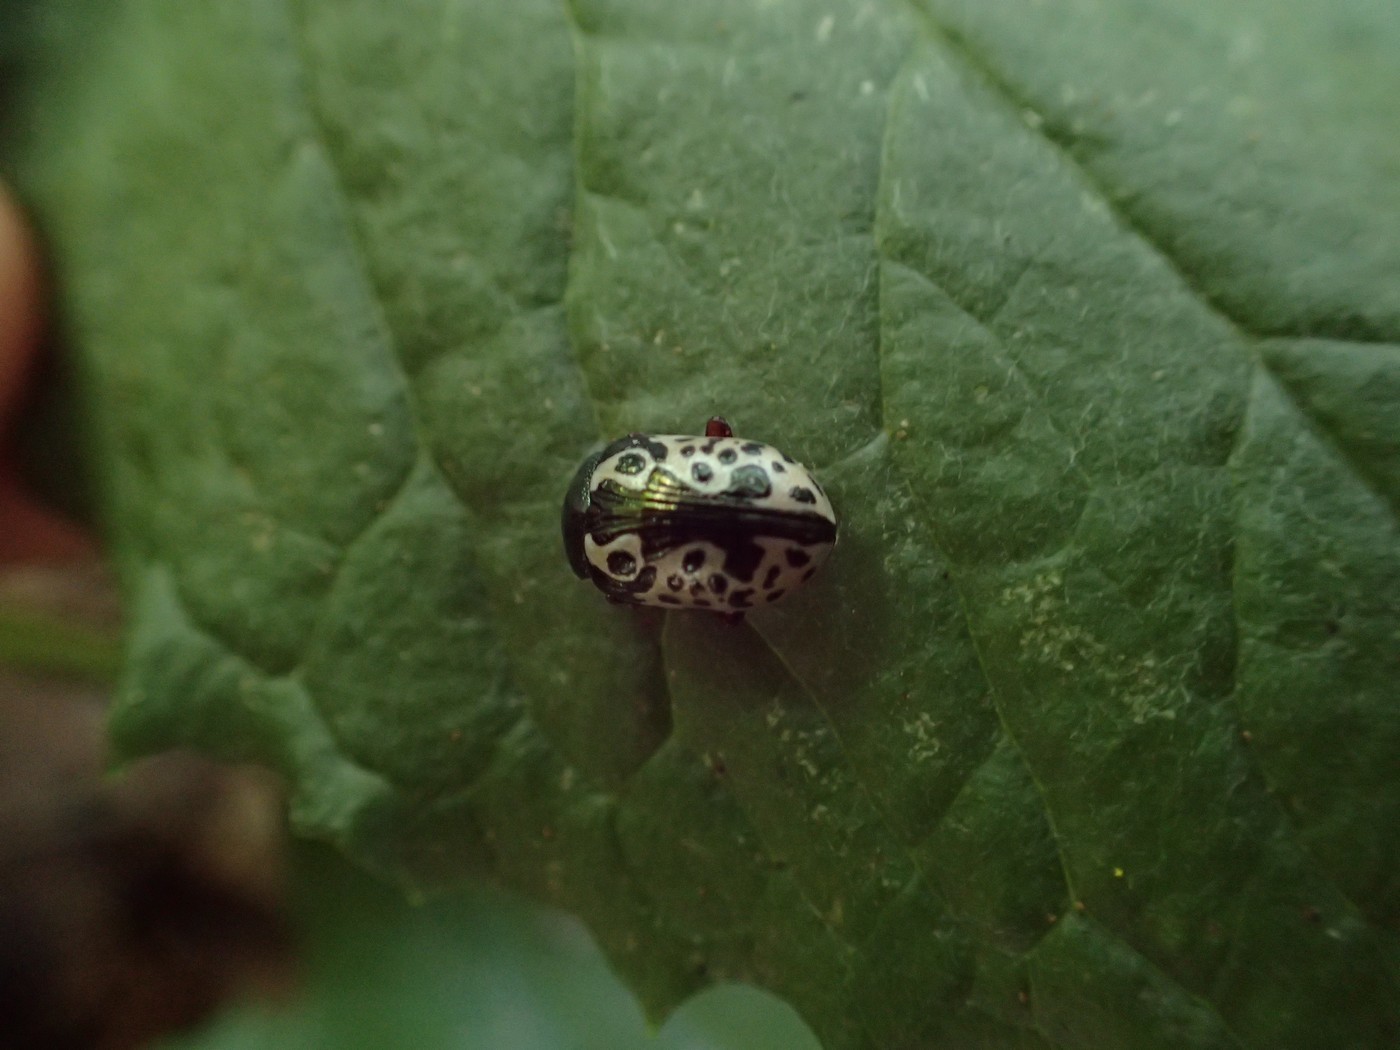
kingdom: Animalia
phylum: Arthropoda
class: Insecta
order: Coleoptera
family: Chrysomelidae
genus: Calligrapha
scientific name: Calligrapha ignota
